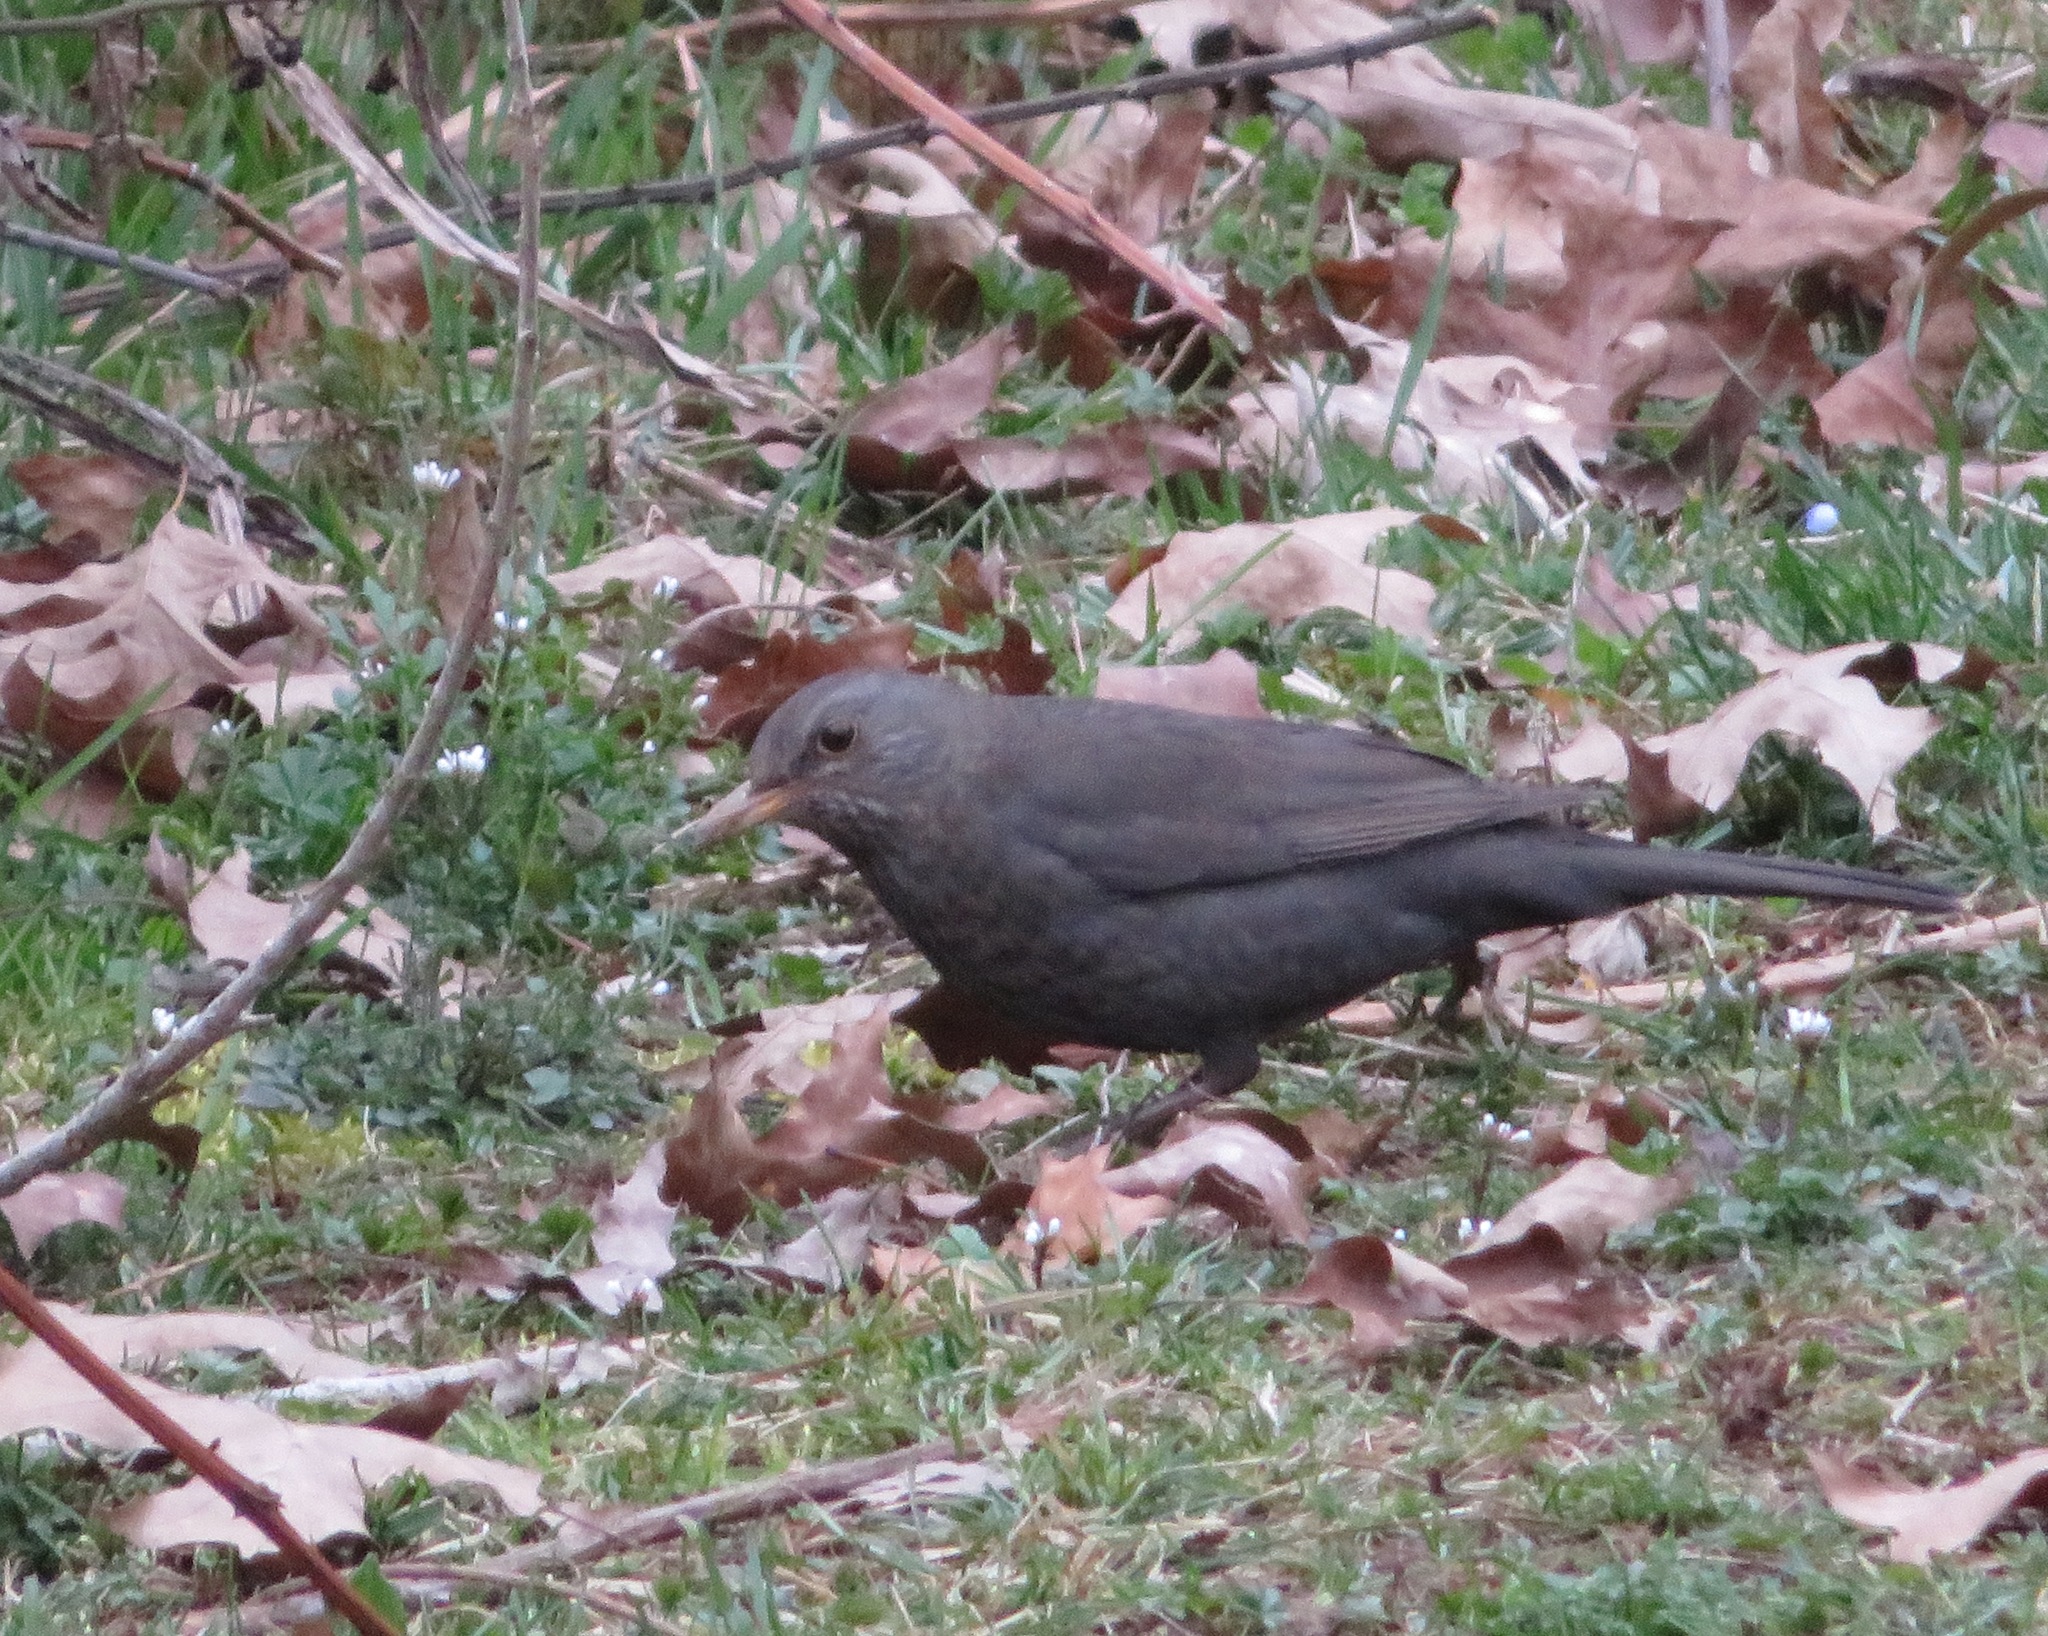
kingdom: Animalia
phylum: Chordata
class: Aves
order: Passeriformes
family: Turdidae
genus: Turdus
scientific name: Turdus merula
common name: Common blackbird
